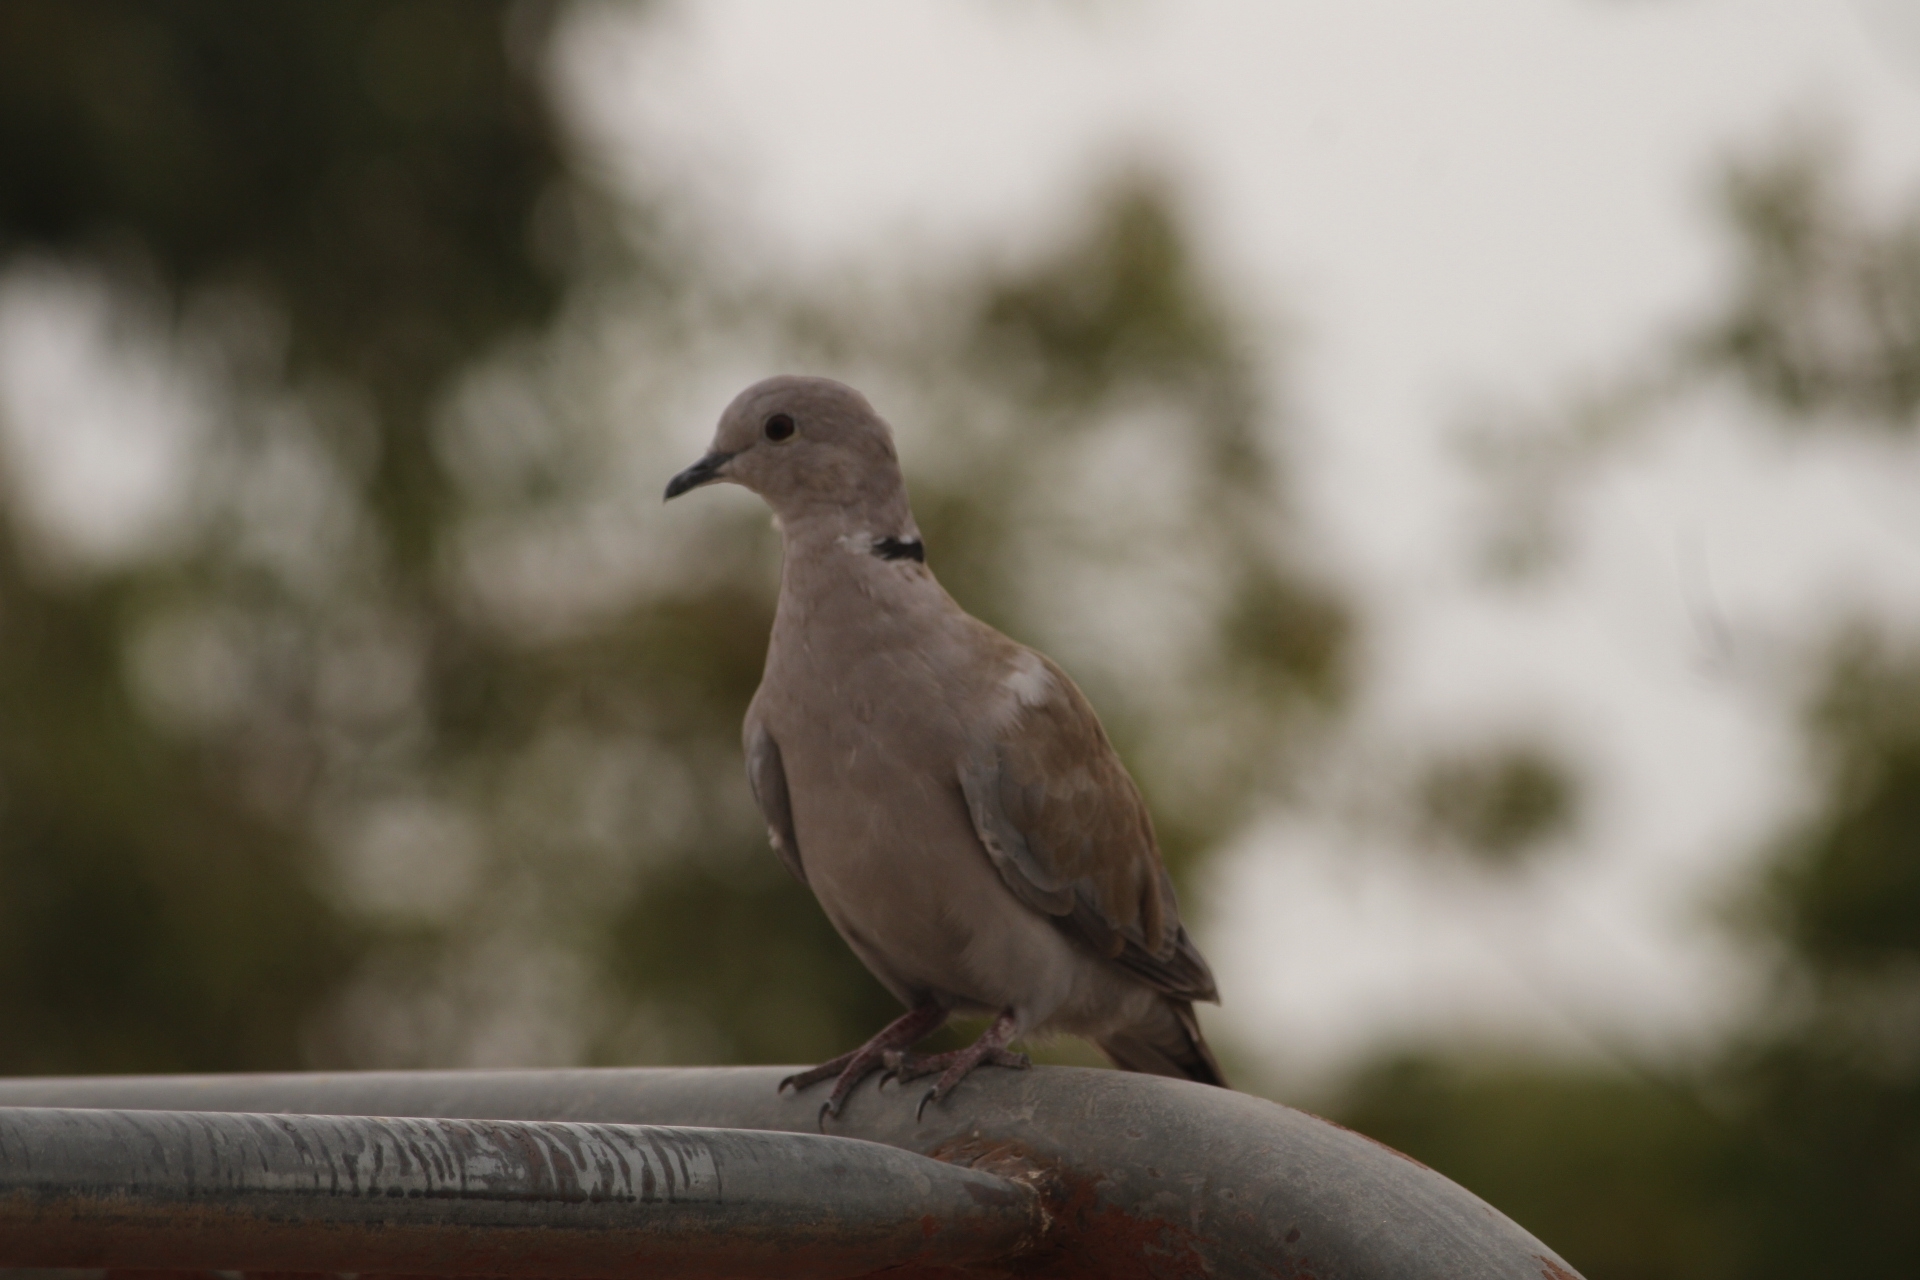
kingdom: Animalia
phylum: Chordata
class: Aves
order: Columbiformes
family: Columbidae
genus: Streptopelia
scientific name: Streptopelia decaocto
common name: Eurasian collared dove
